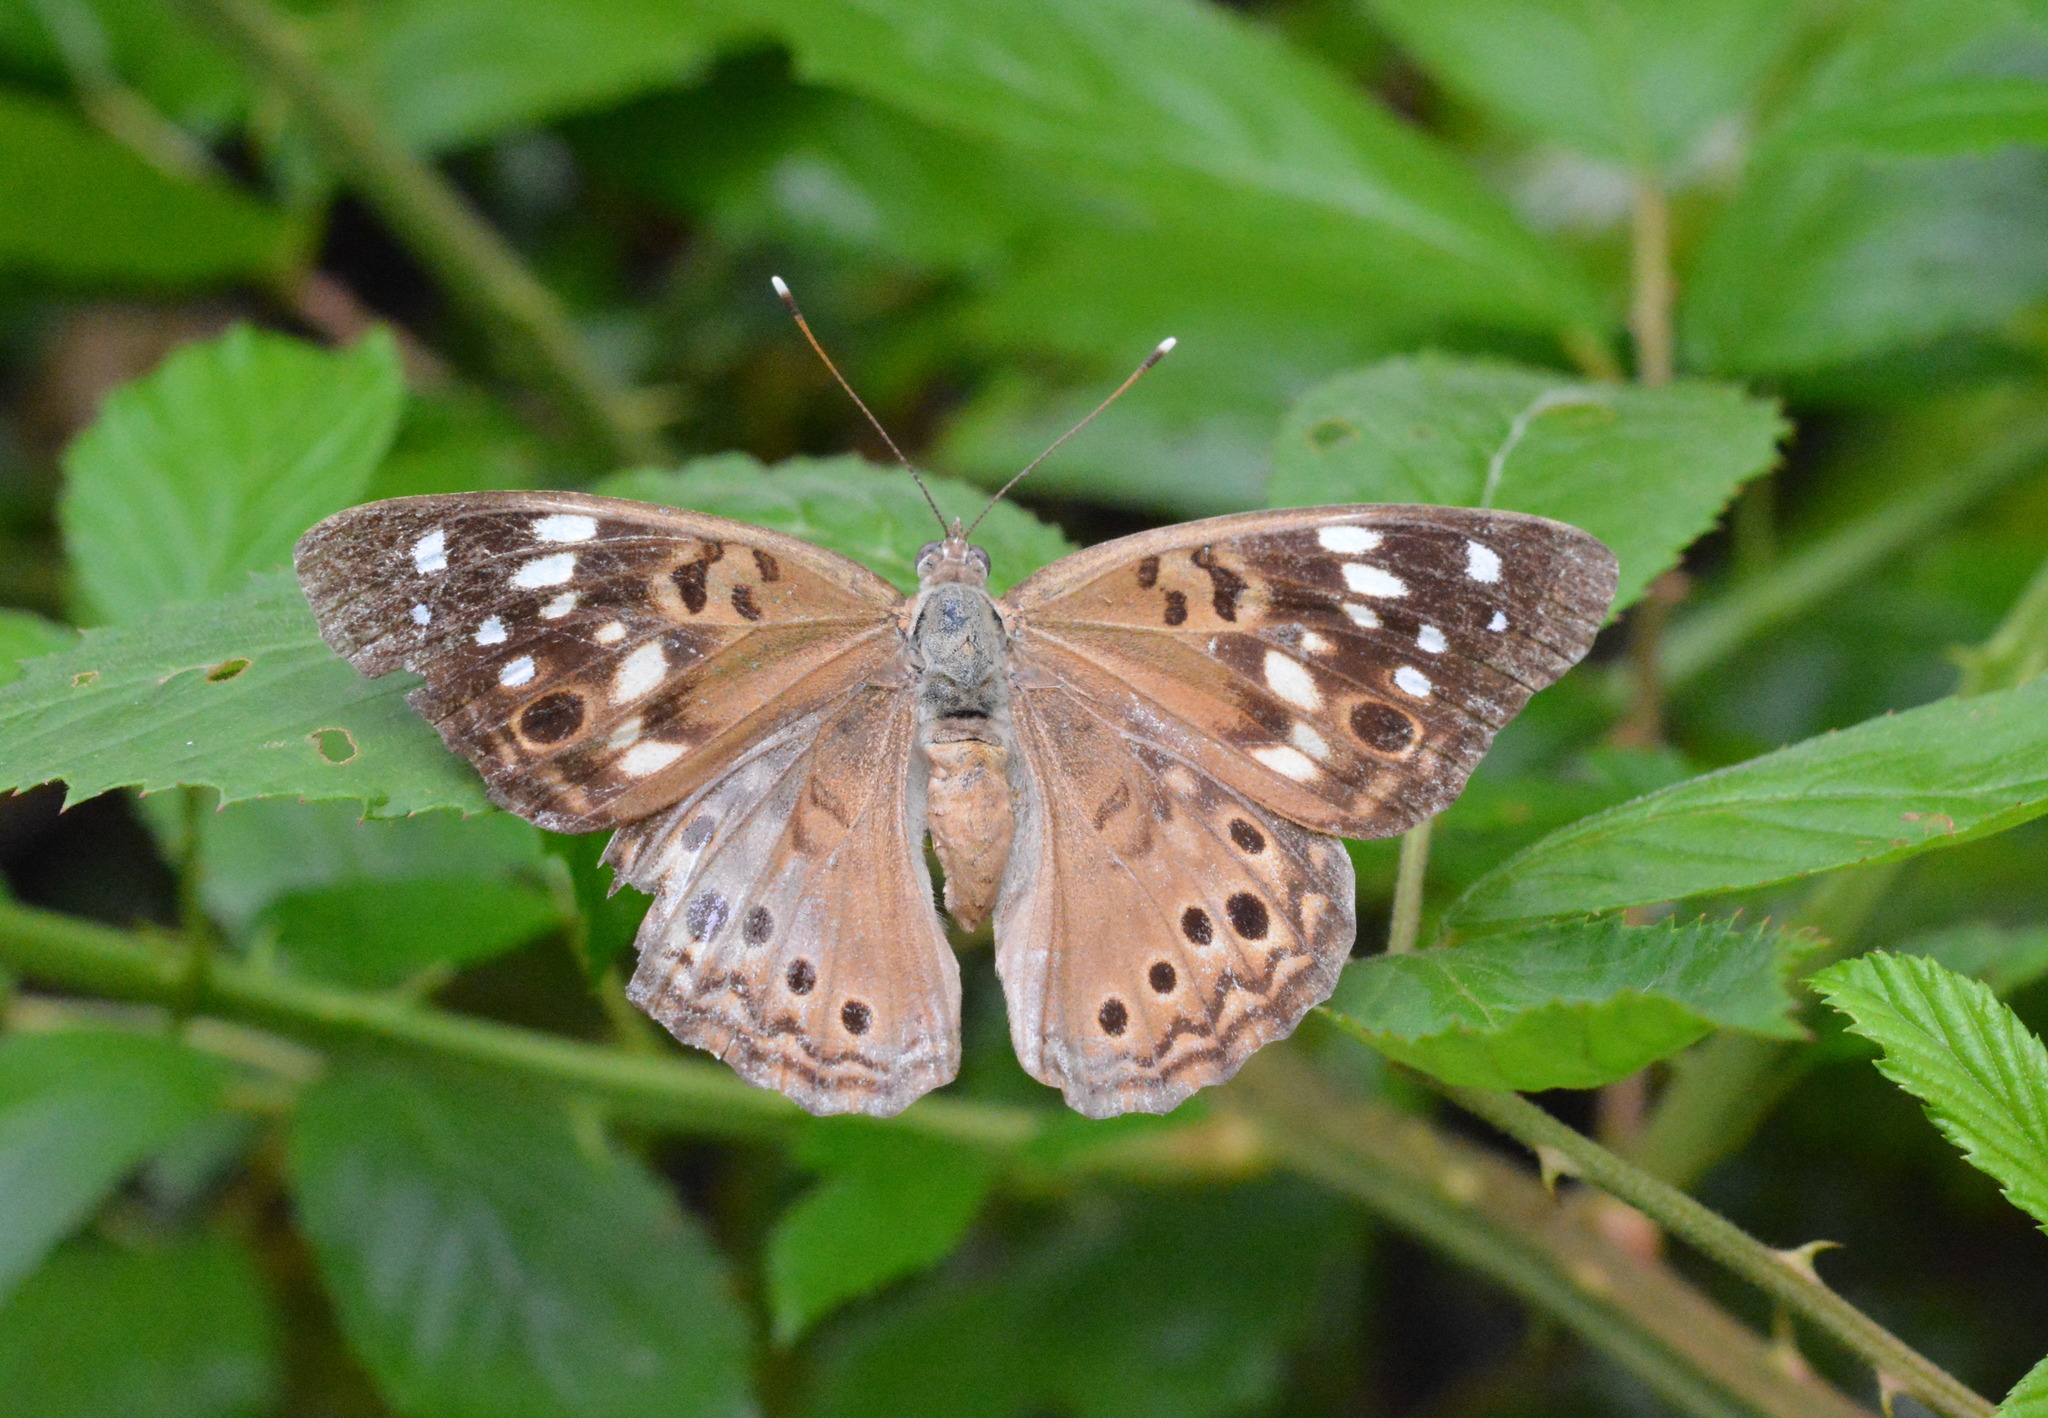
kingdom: Animalia
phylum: Arthropoda
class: Insecta
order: Lepidoptera
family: Nymphalidae
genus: Asterocampa
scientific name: Asterocampa celtis
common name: Hackberry emperor
